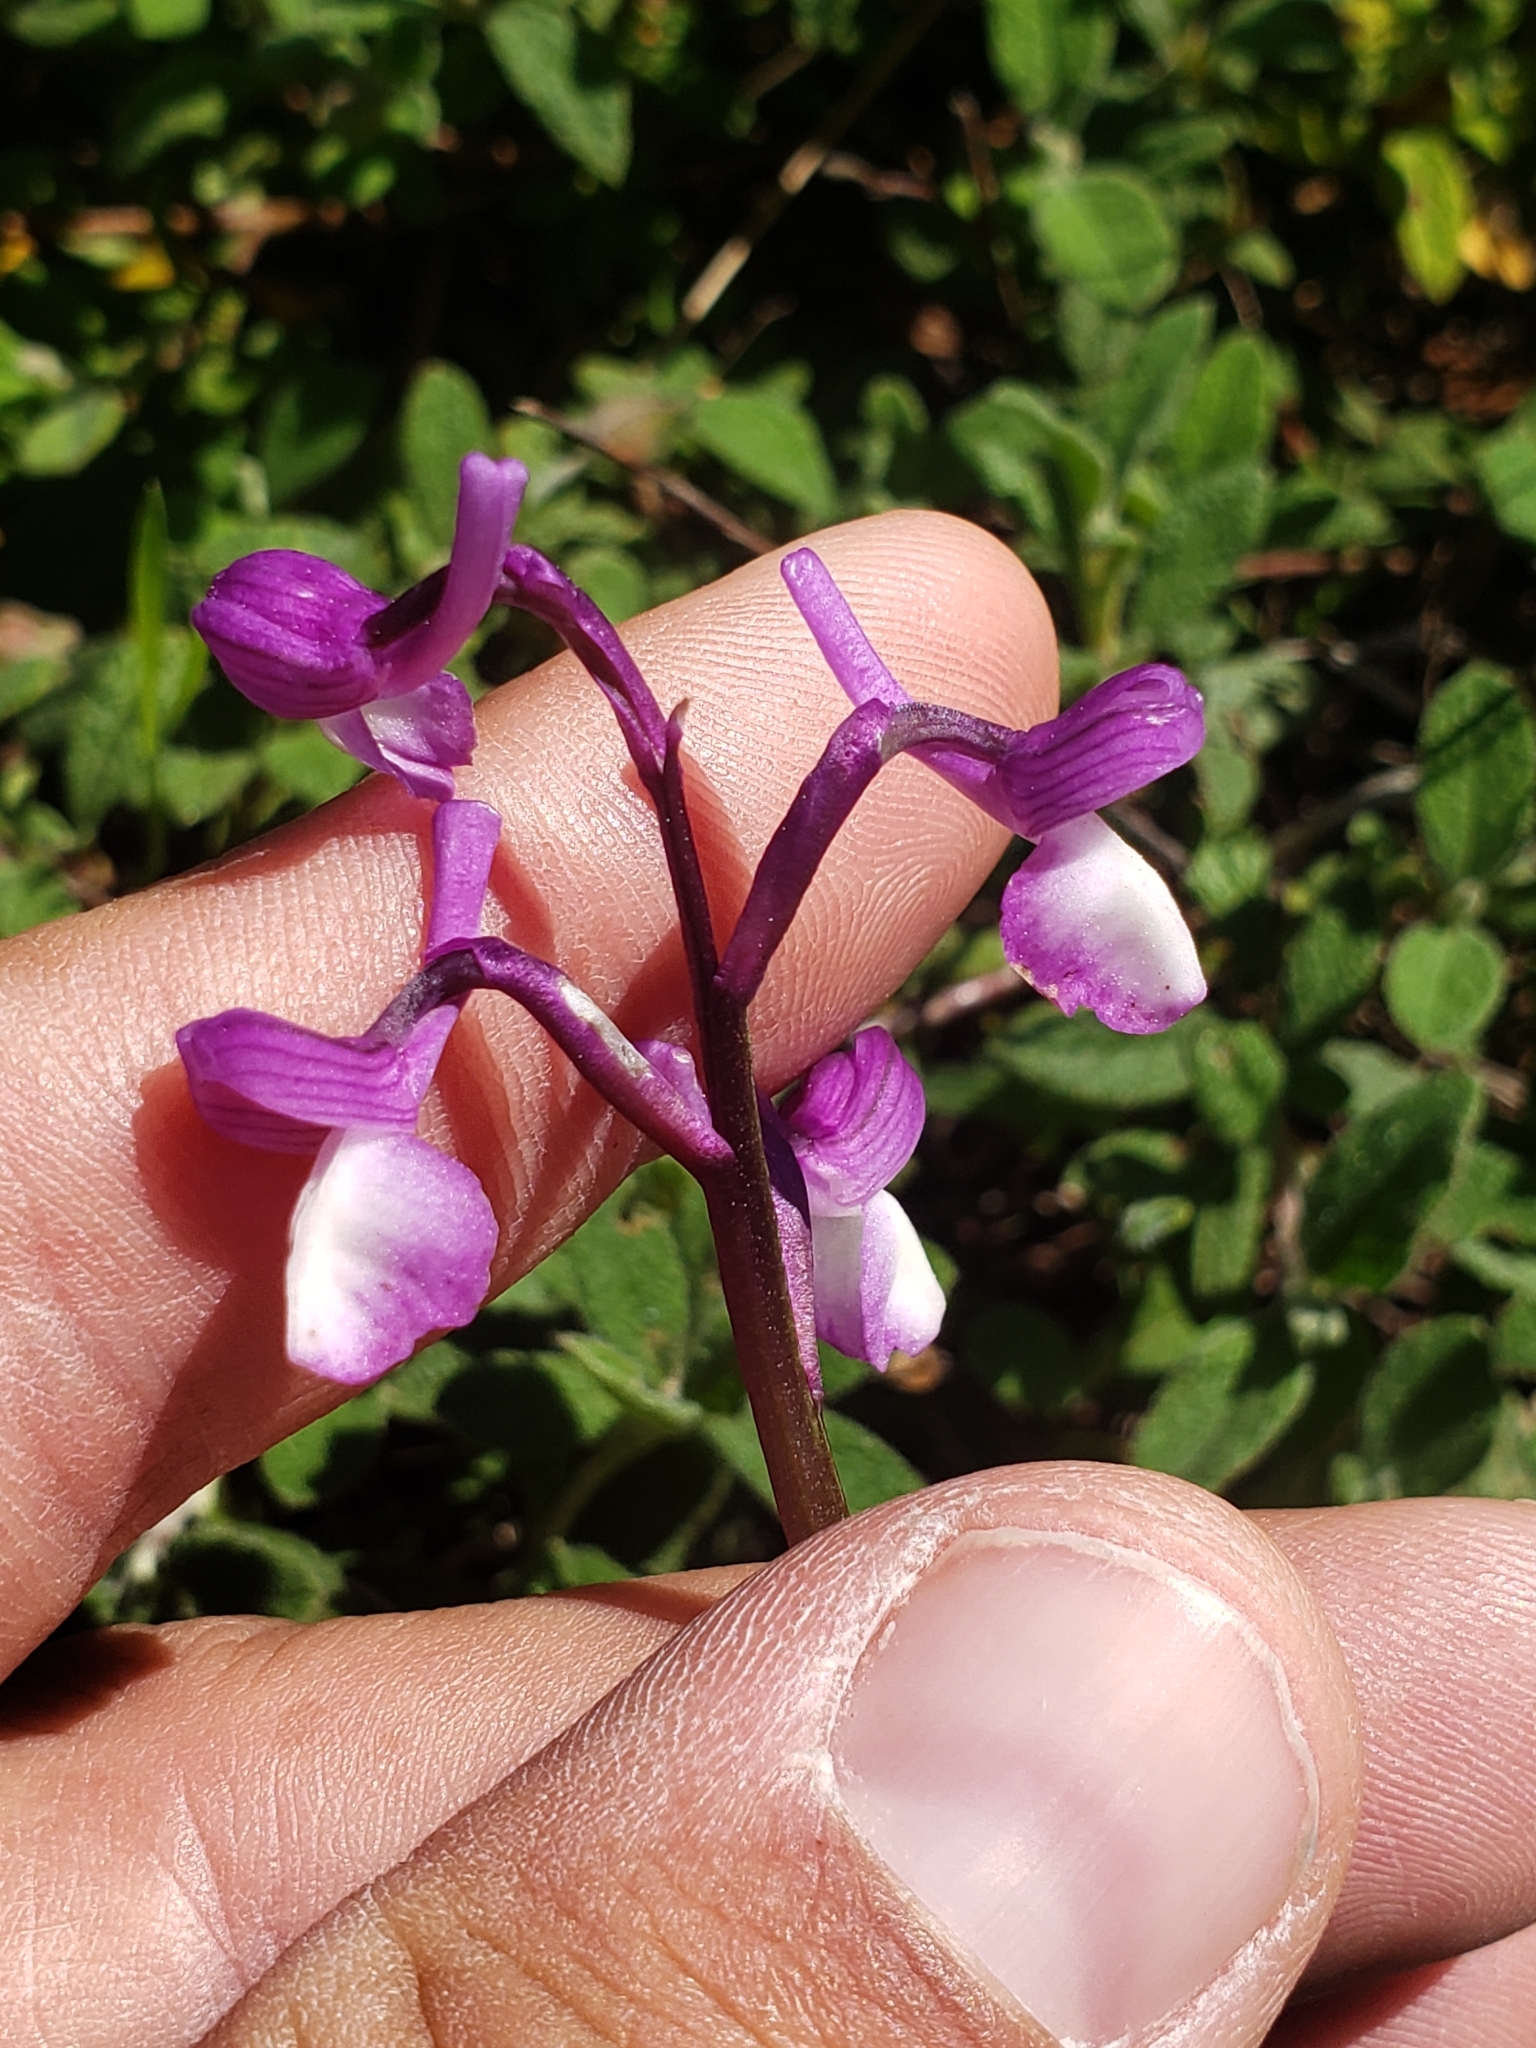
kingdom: Plantae
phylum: Tracheophyta
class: Liliopsida
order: Asparagales
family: Orchidaceae
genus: Anacamptis
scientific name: Anacamptis morio
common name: Green-winged orchid
